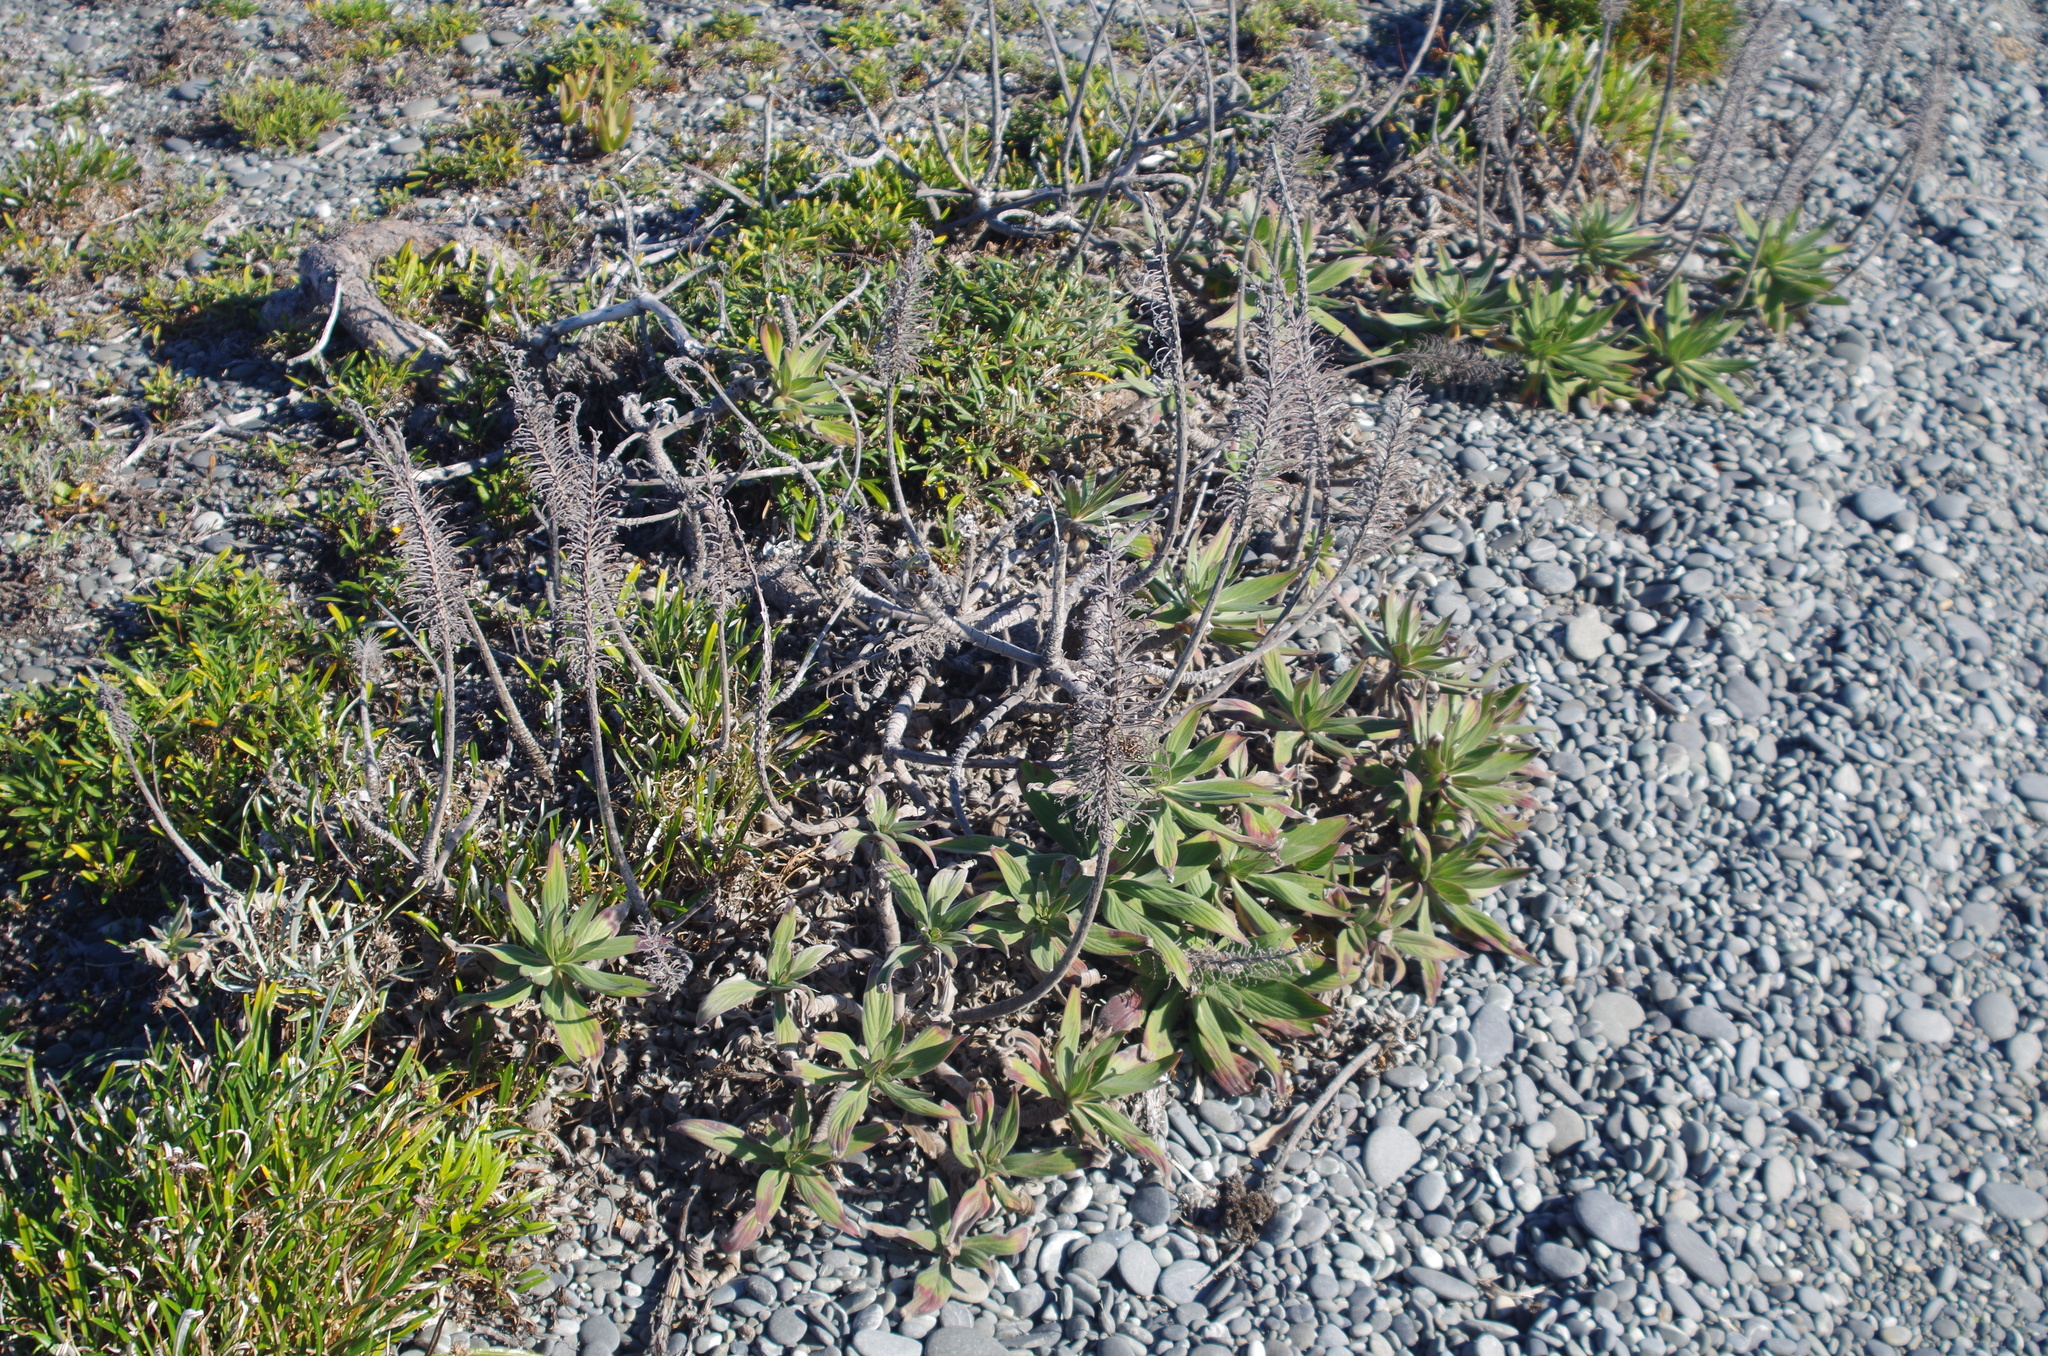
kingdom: Plantae
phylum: Tracheophyta
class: Magnoliopsida
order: Boraginales
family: Boraginaceae
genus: Echium
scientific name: Echium candicans
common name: Pride of madeira
